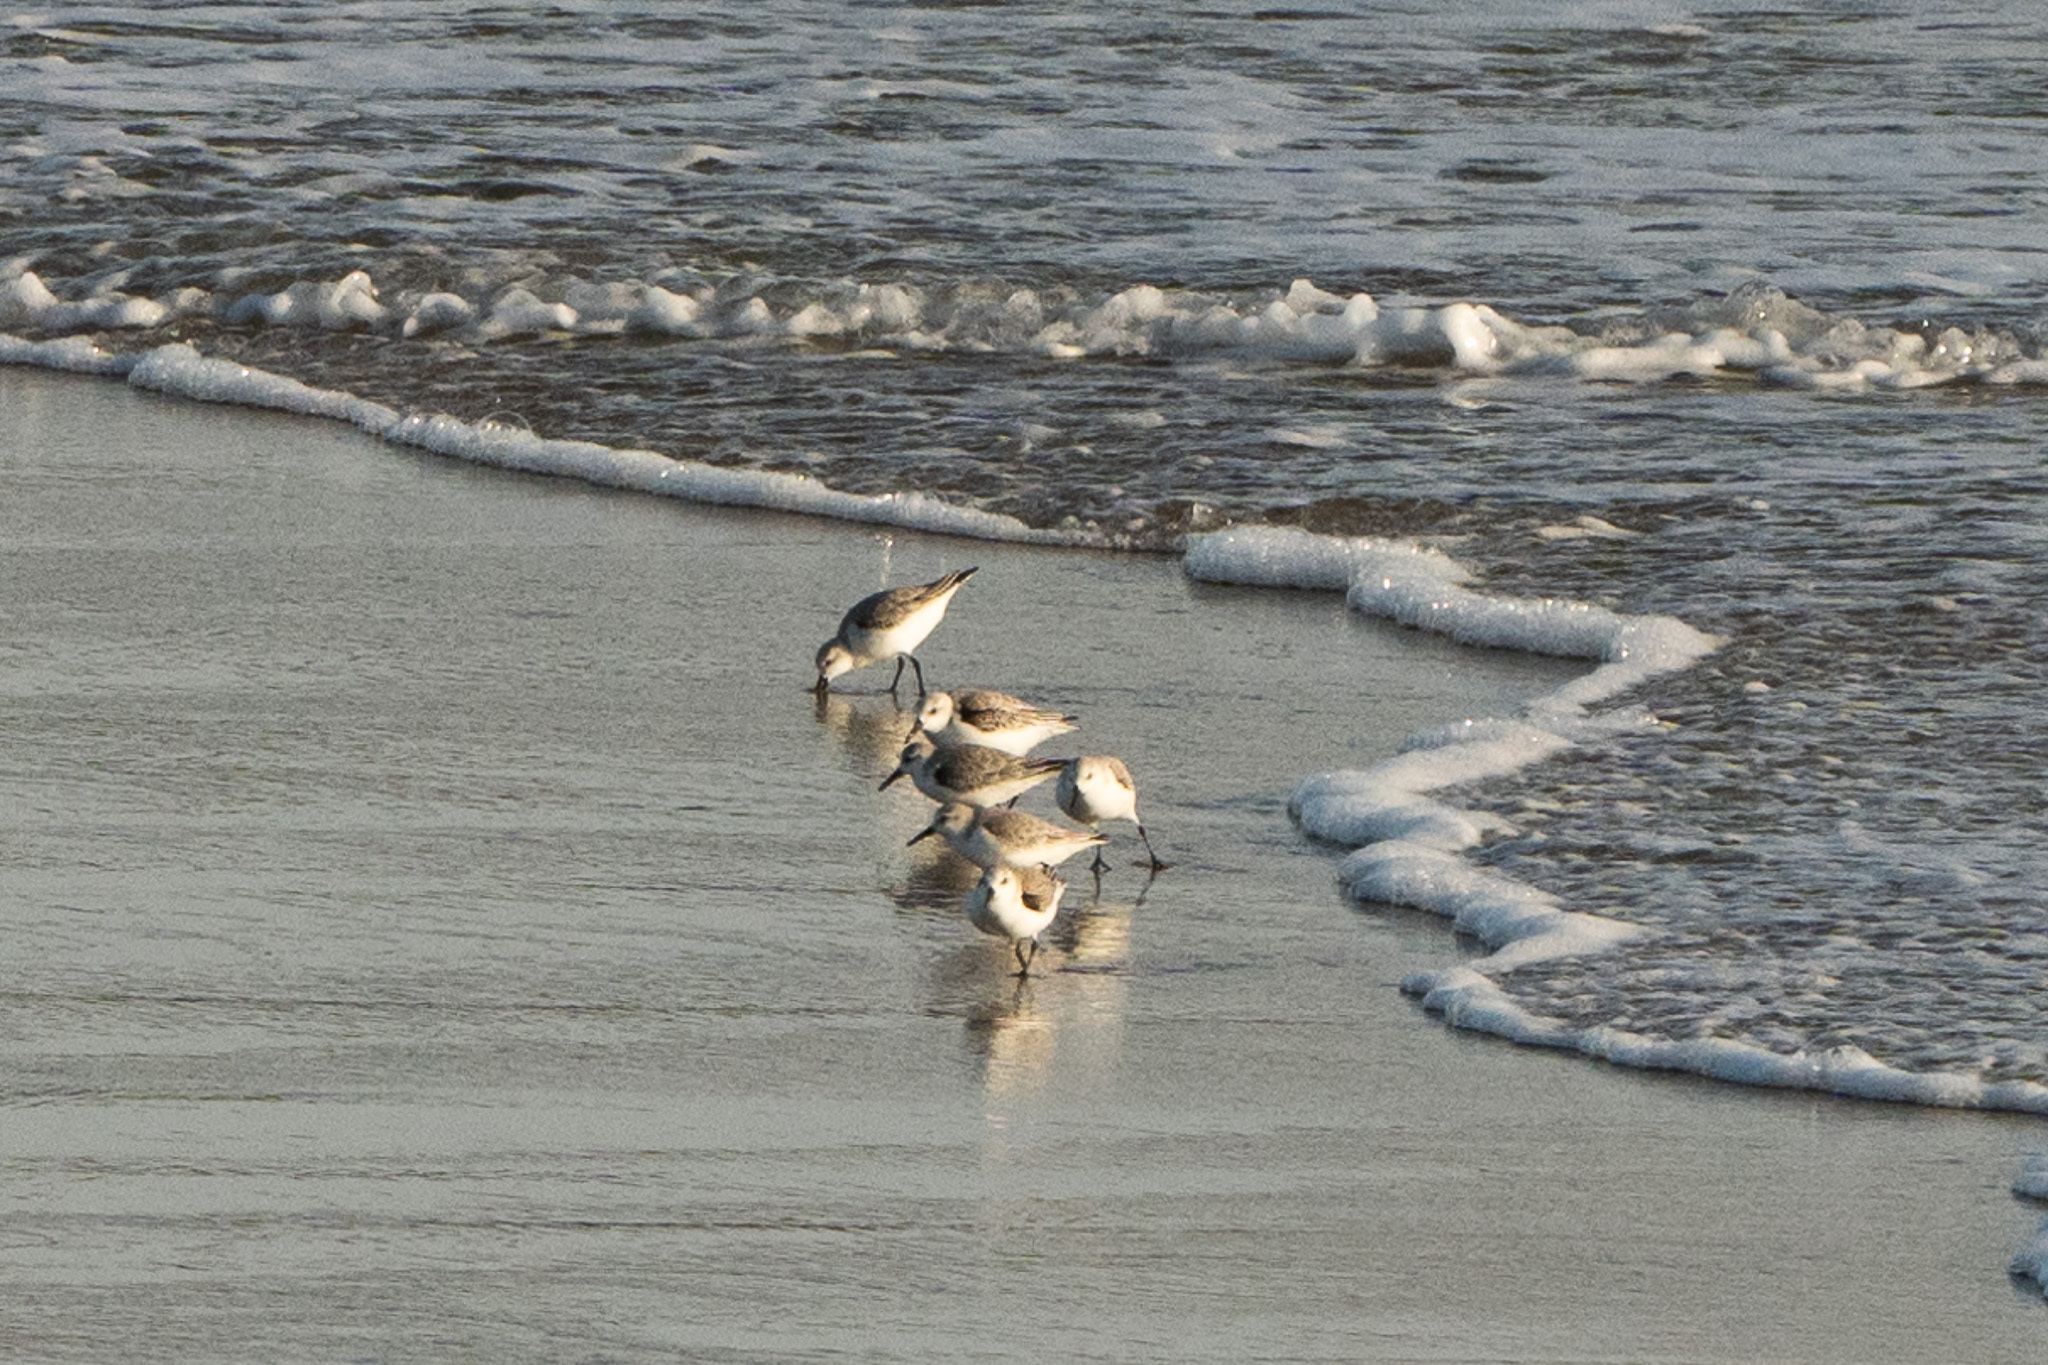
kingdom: Animalia
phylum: Chordata
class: Aves
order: Charadriiformes
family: Scolopacidae
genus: Calidris
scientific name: Calidris alba
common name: Sanderling
